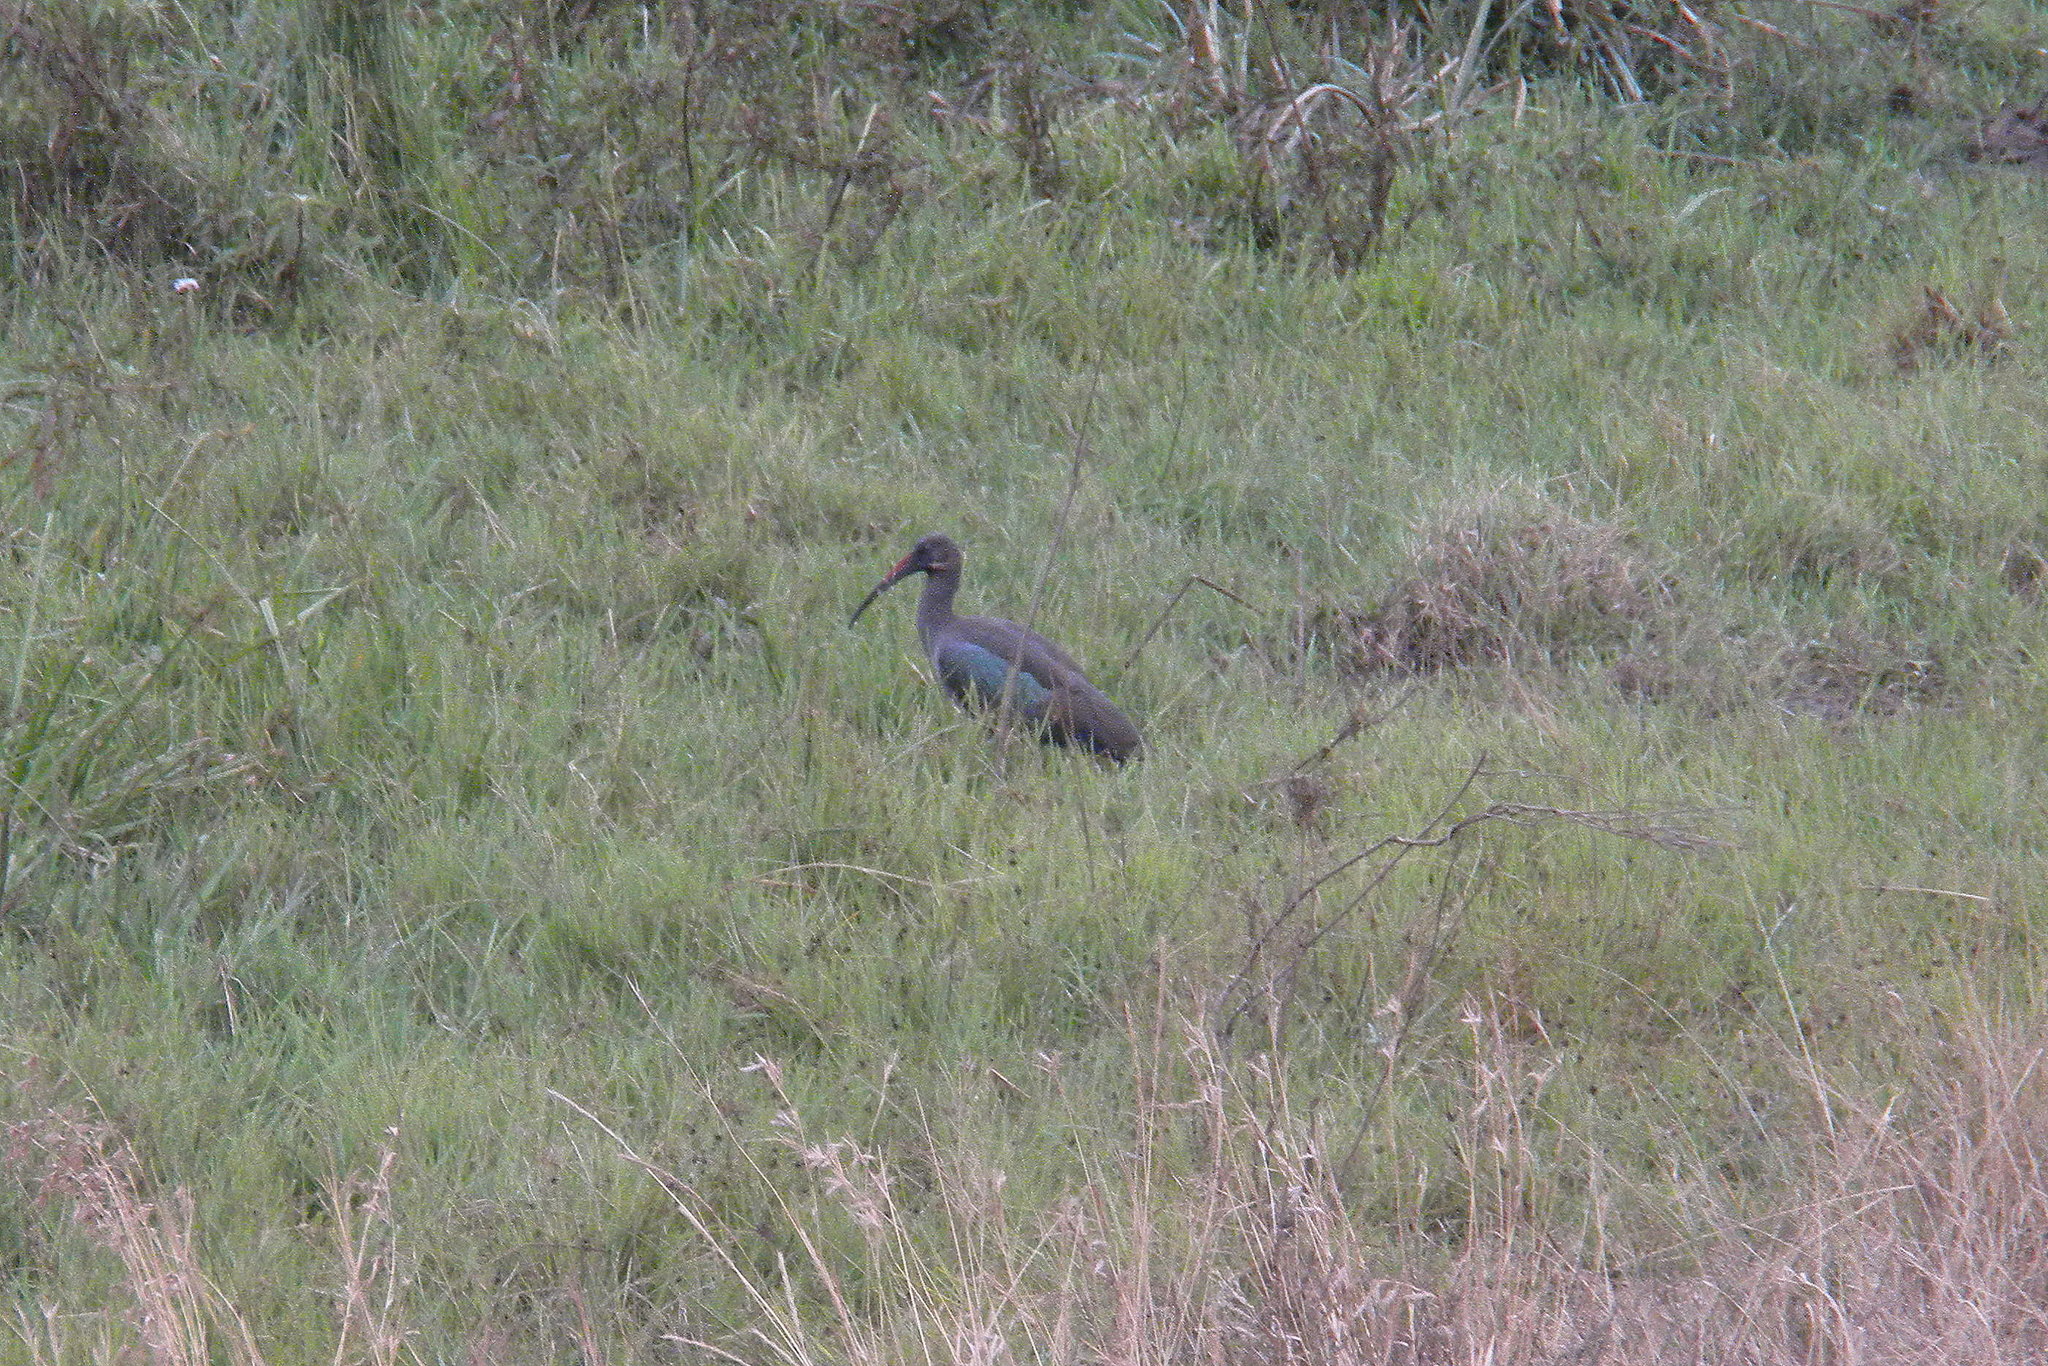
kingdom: Animalia
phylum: Chordata
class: Aves
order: Pelecaniformes
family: Threskiornithidae
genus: Bostrychia
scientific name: Bostrychia hagedash
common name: Hadada ibis
